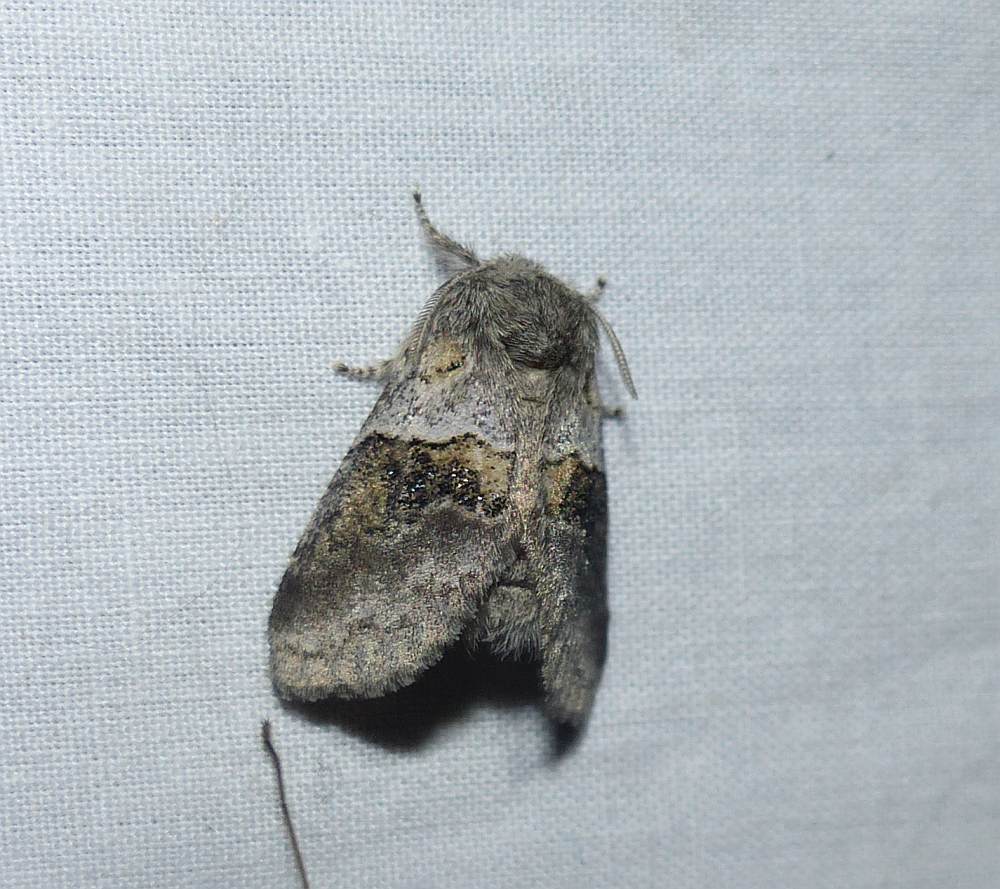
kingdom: Animalia
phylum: Arthropoda
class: Insecta
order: Lepidoptera
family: Notodontidae
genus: Gluphisia
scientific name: Gluphisia septentrionis
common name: Common gluphisia
